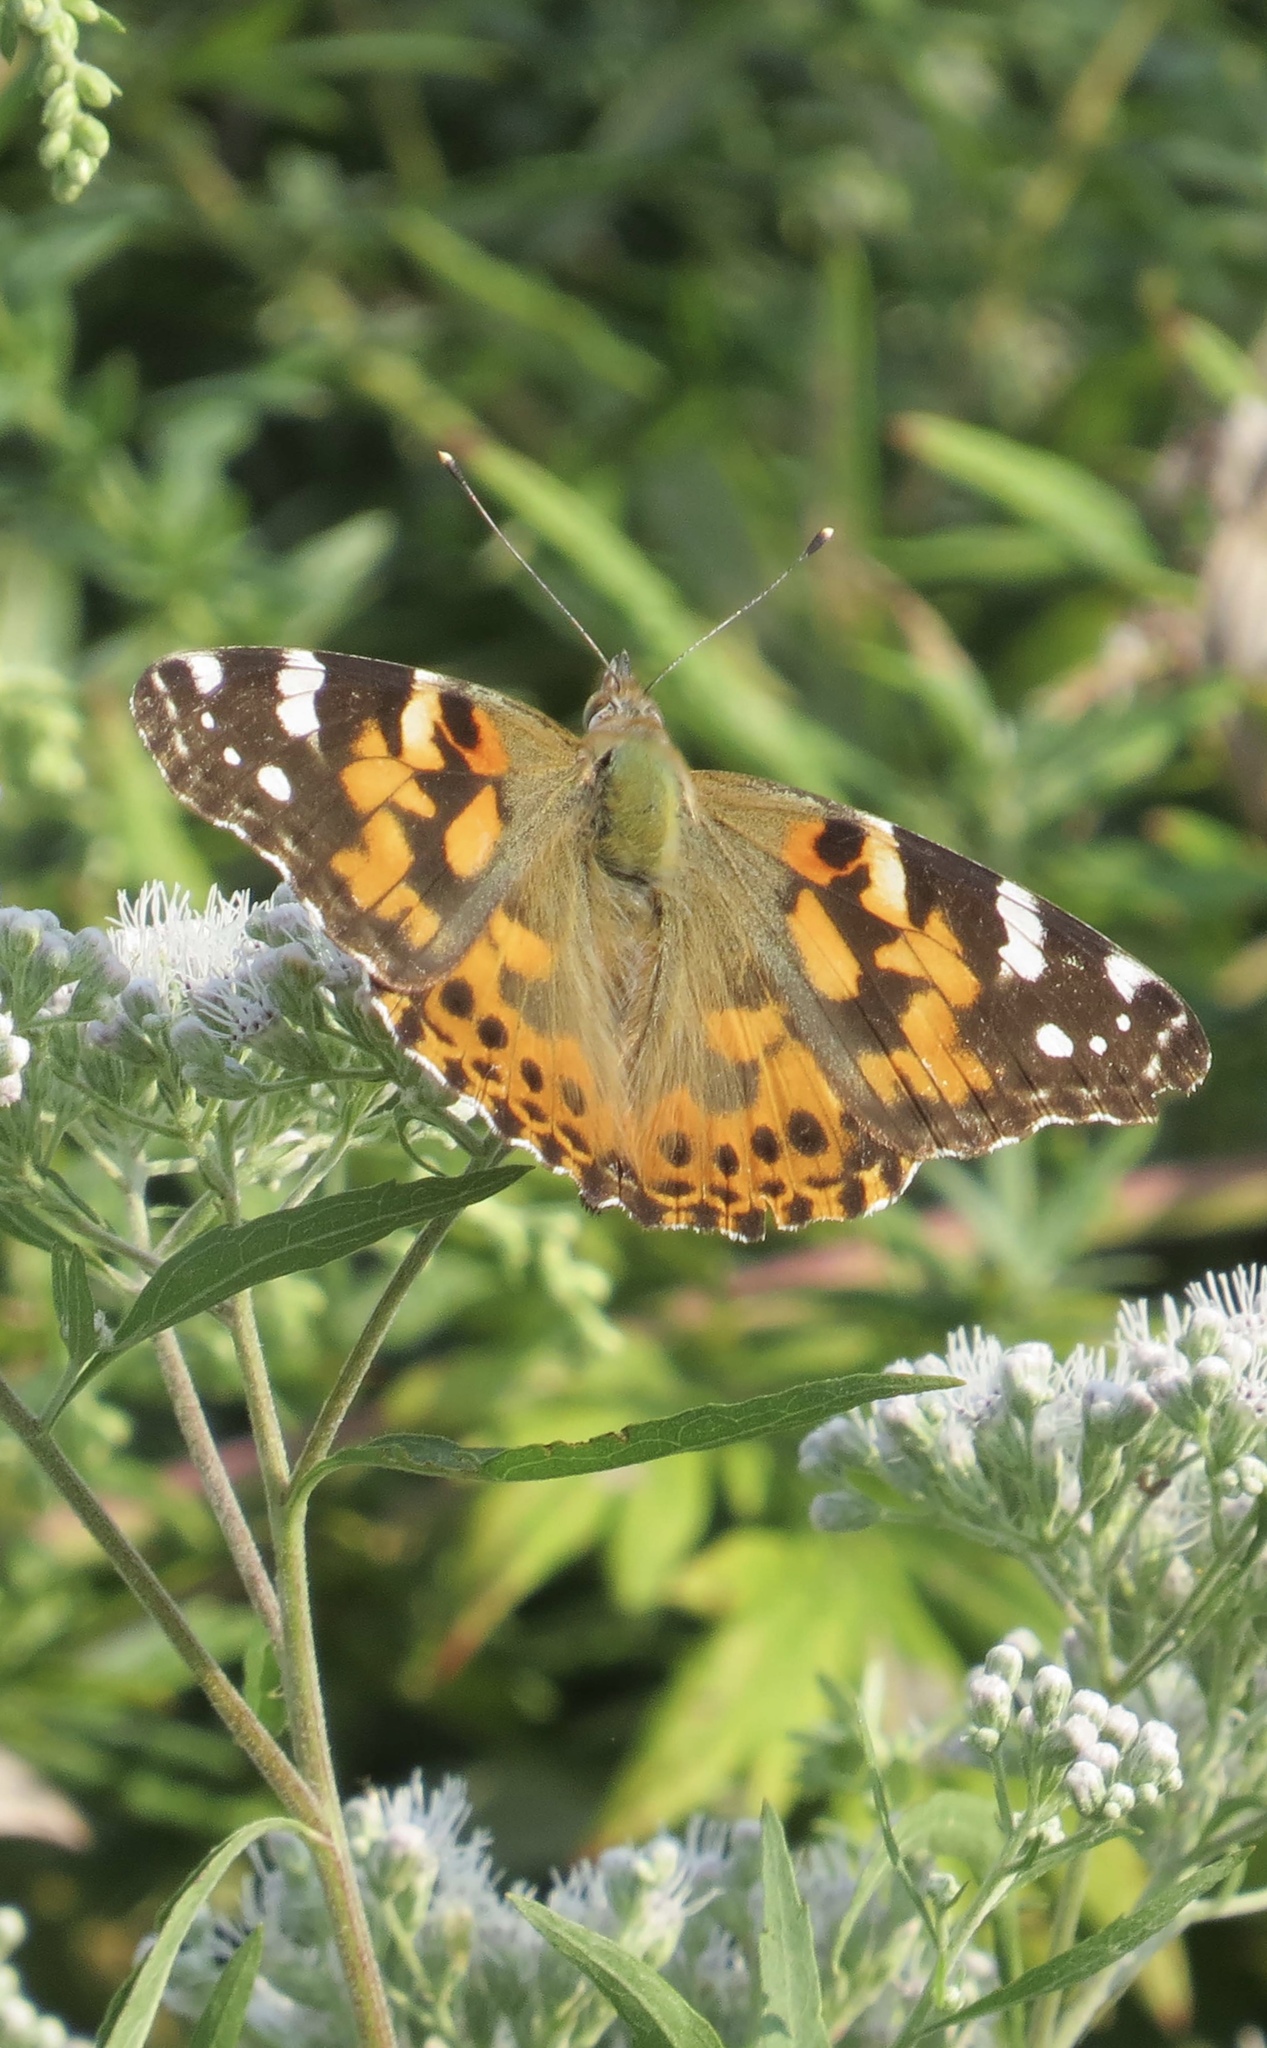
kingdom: Animalia
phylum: Arthropoda
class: Insecta
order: Lepidoptera
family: Nymphalidae
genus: Vanessa
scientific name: Vanessa cardui
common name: Painted lady
